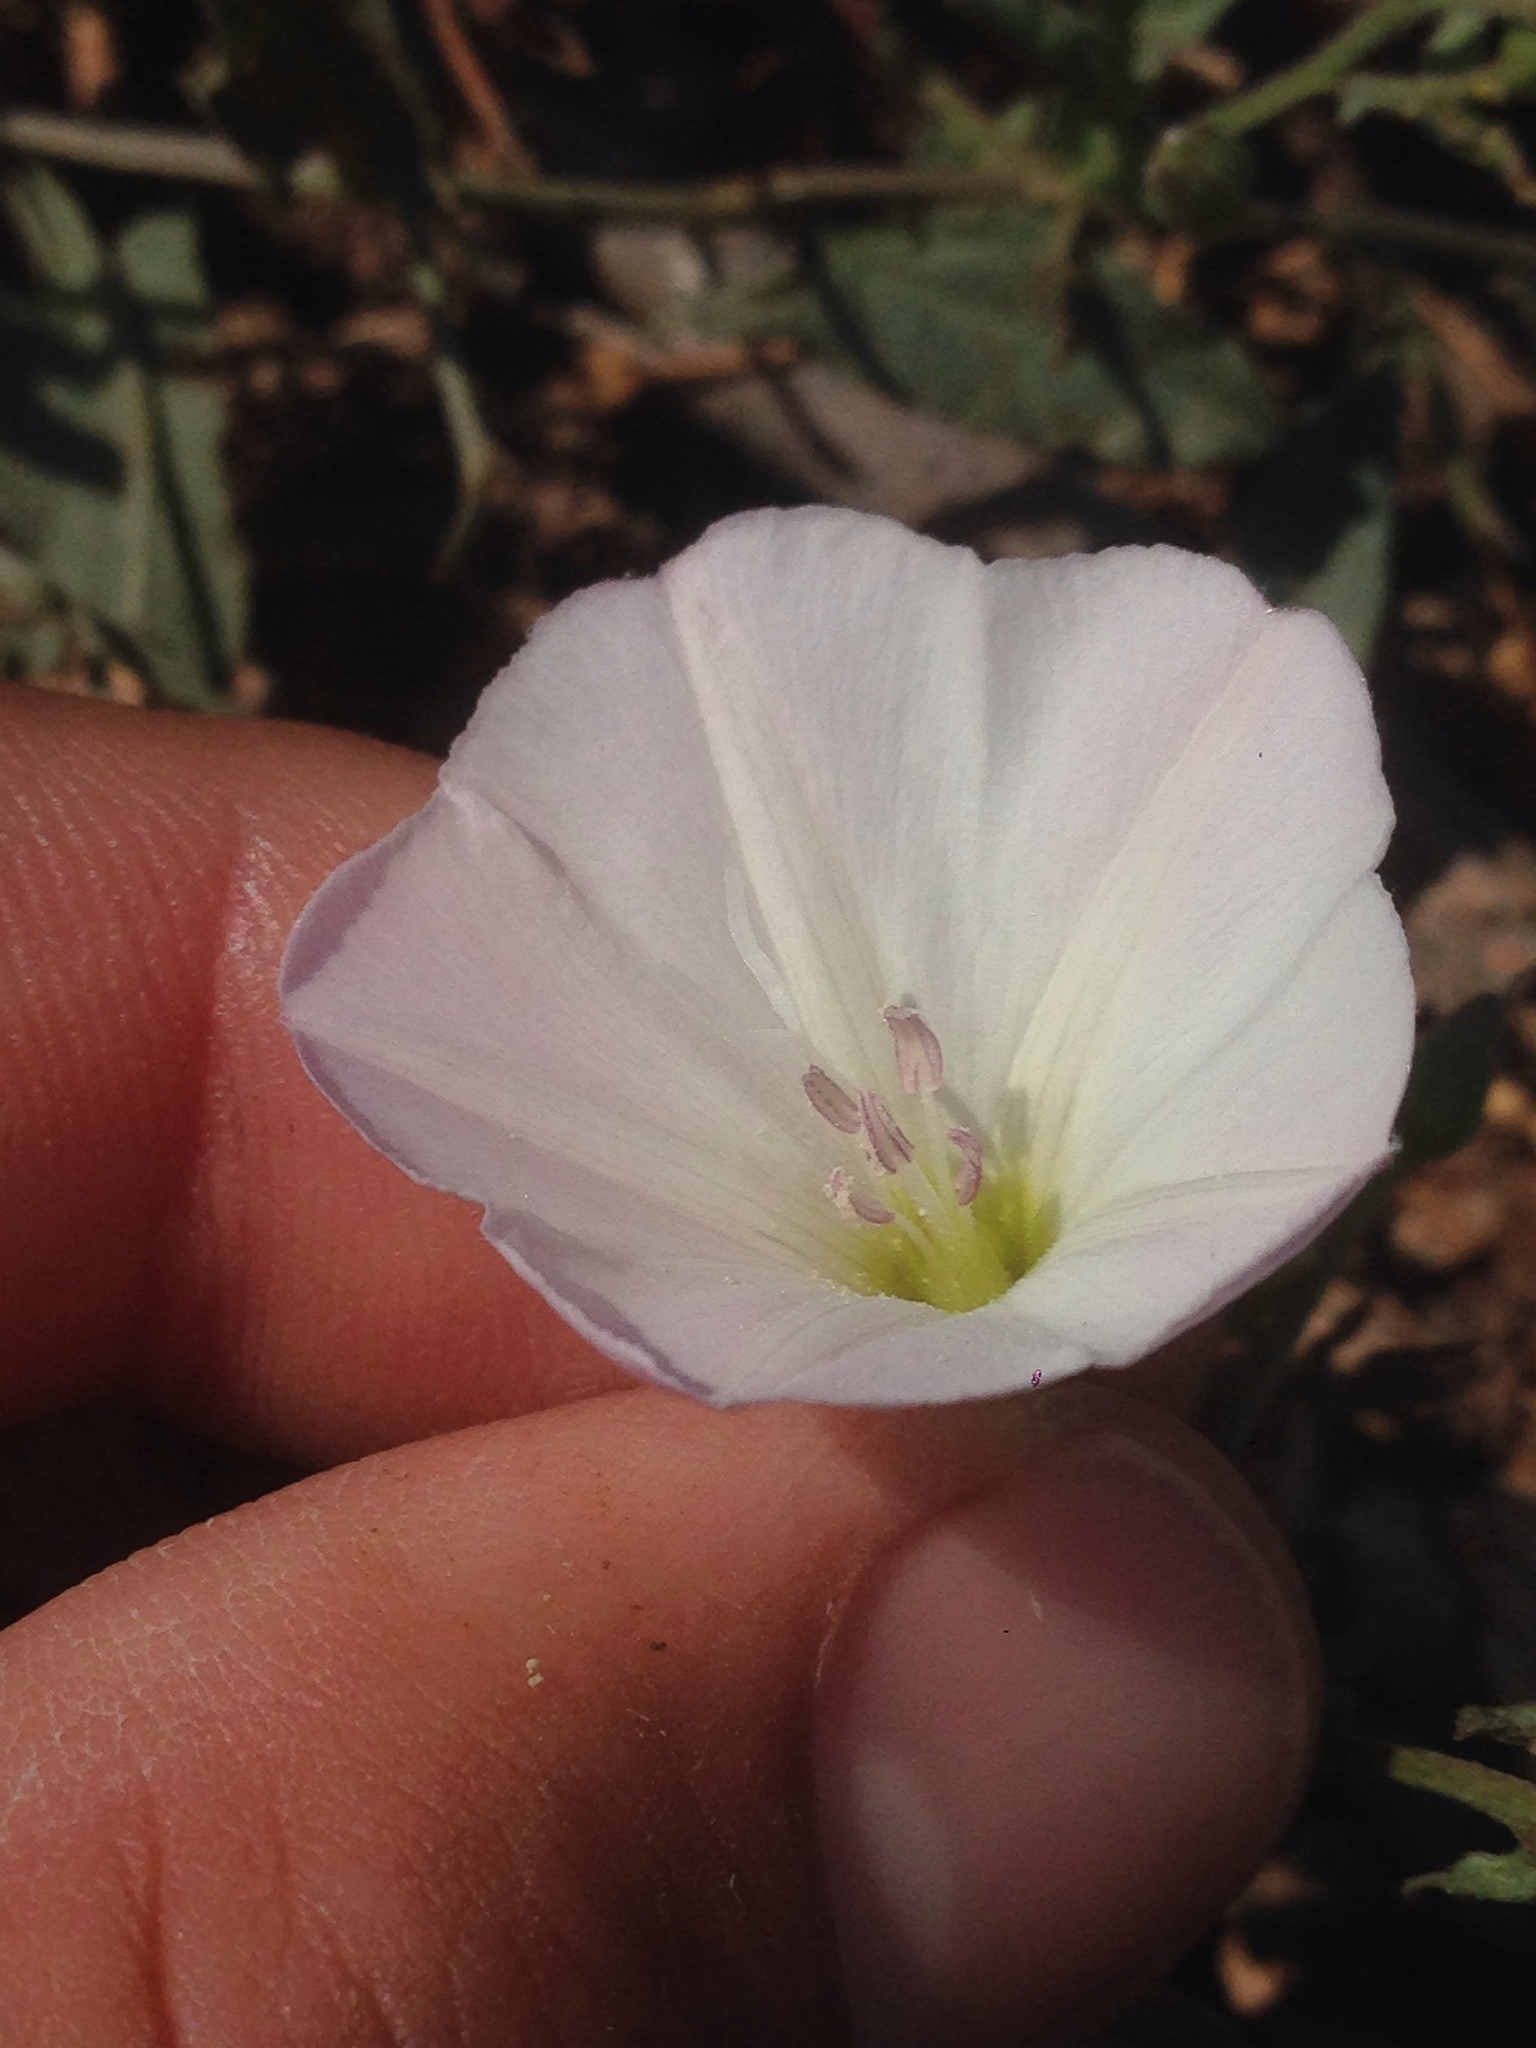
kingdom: Plantae
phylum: Tracheophyta
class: Magnoliopsida
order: Solanales
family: Convolvulaceae
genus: Convolvulus
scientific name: Convolvulus arvensis
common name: Field bindweed
